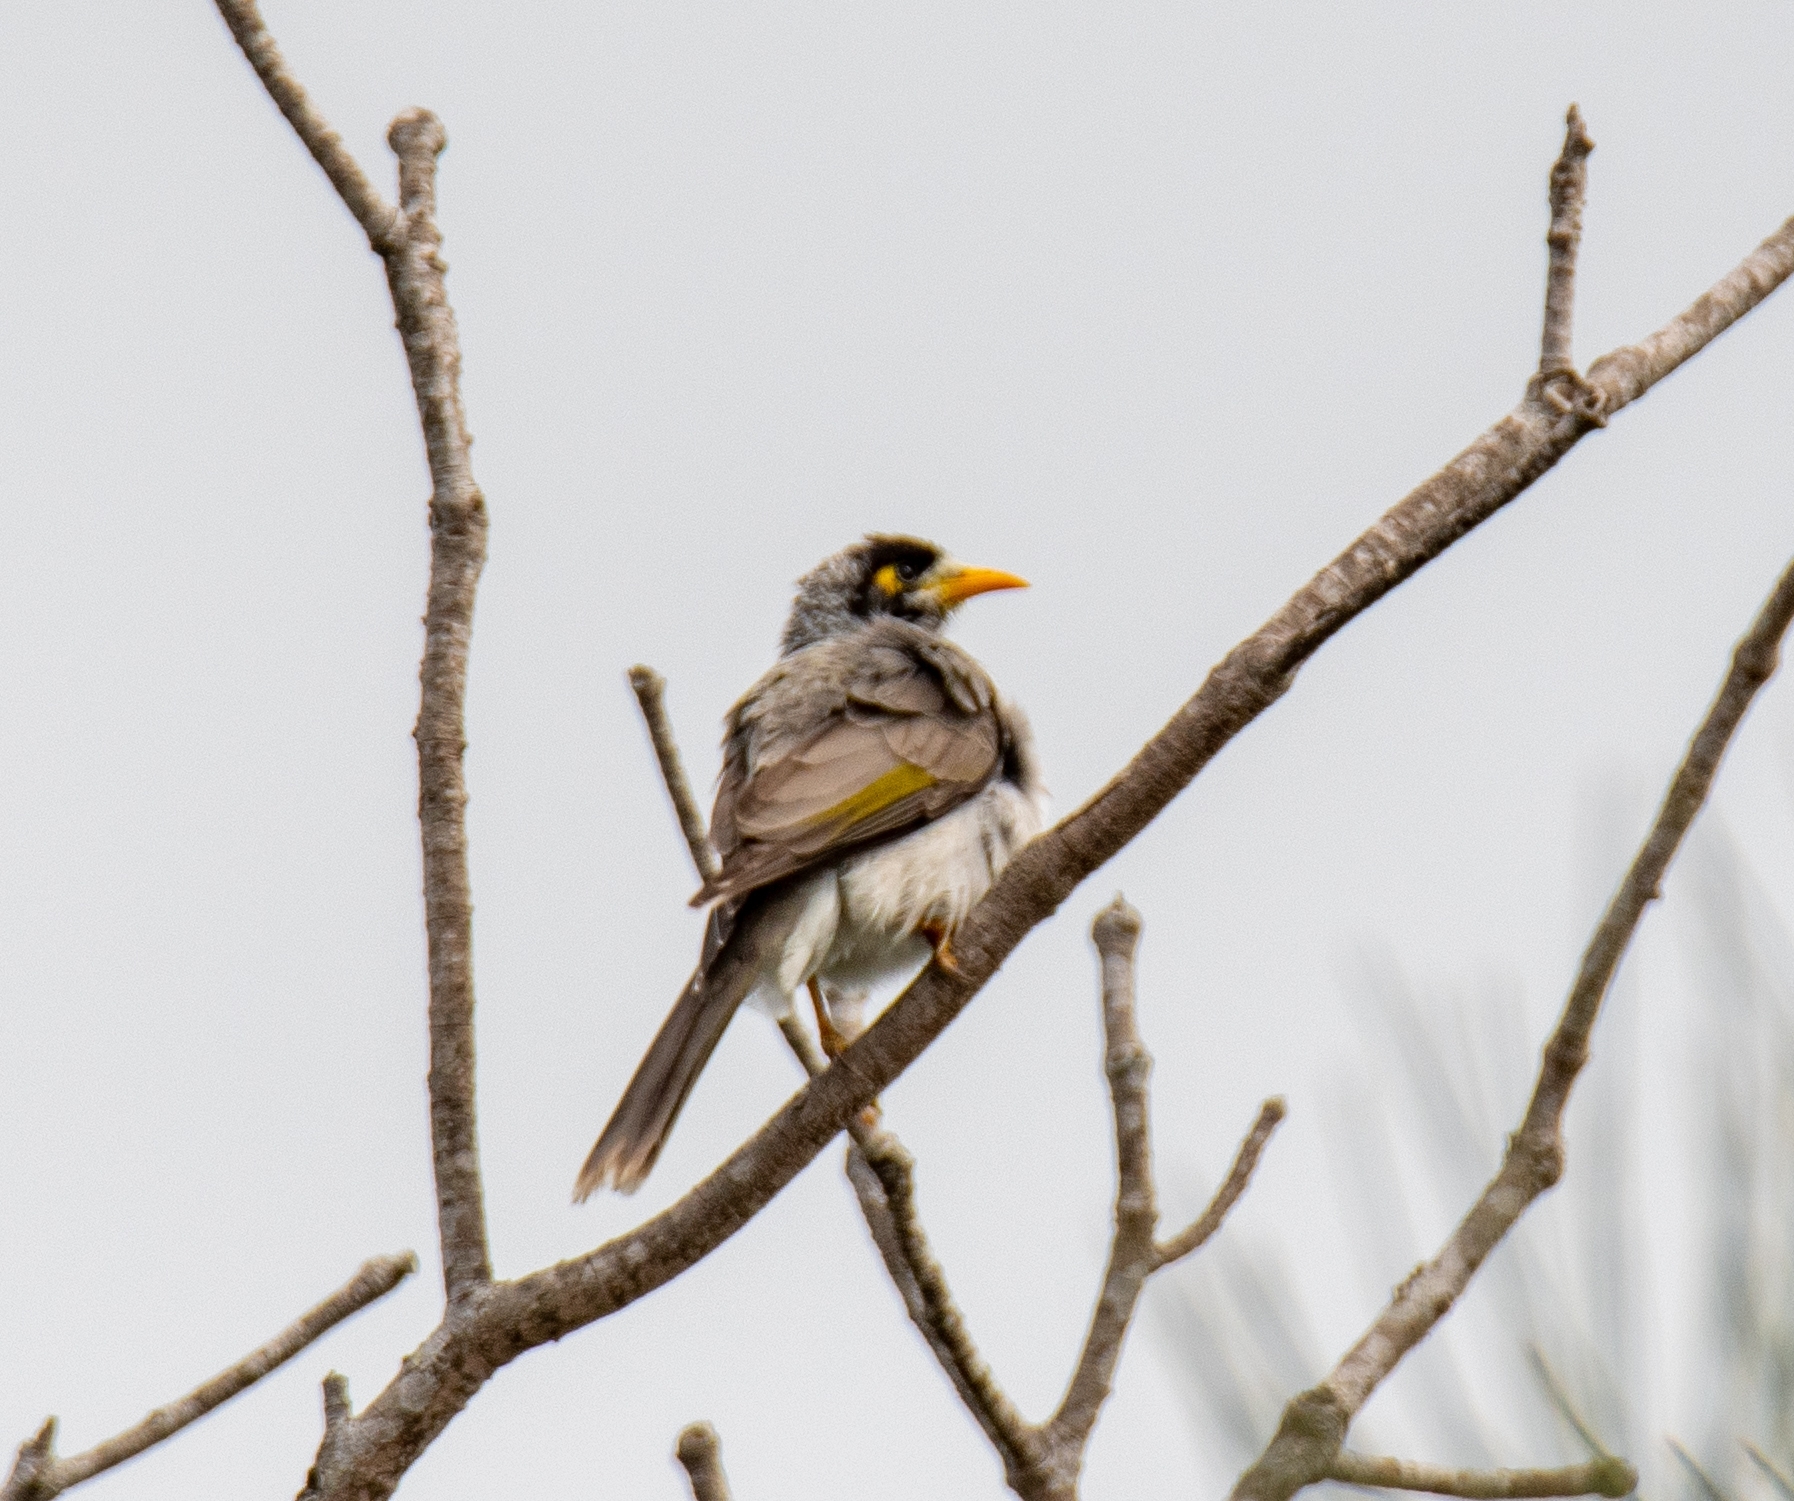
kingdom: Animalia
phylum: Chordata
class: Aves
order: Passeriformes
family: Meliphagidae
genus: Manorina
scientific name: Manorina melanocephala
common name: Noisy miner
